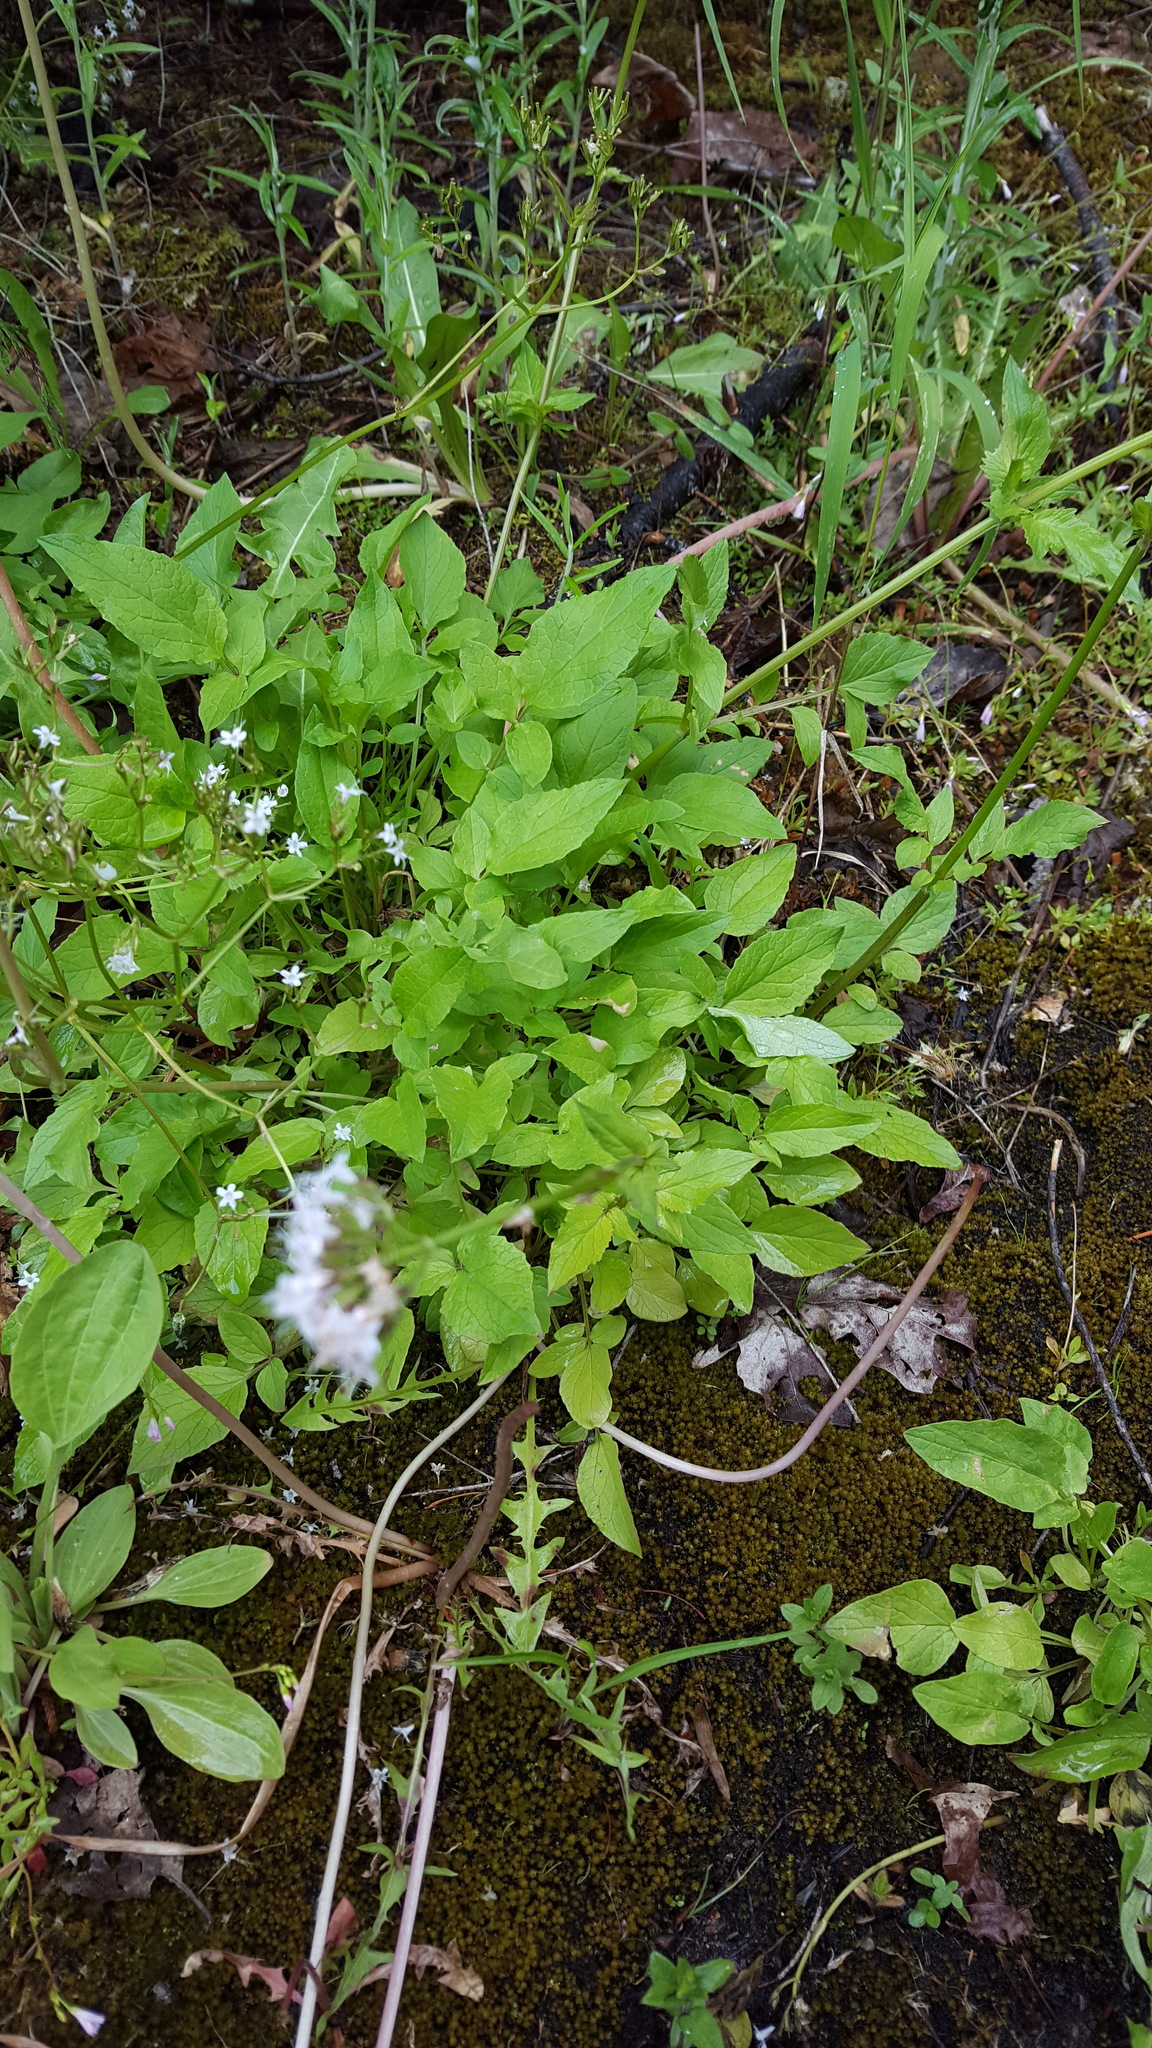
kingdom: Plantae
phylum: Tracheophyta
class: Magnoliopsida
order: Dipsacales
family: Caprifoliaceae
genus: Valeriana
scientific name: Valeriana sitchensis
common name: Pacific valerian
